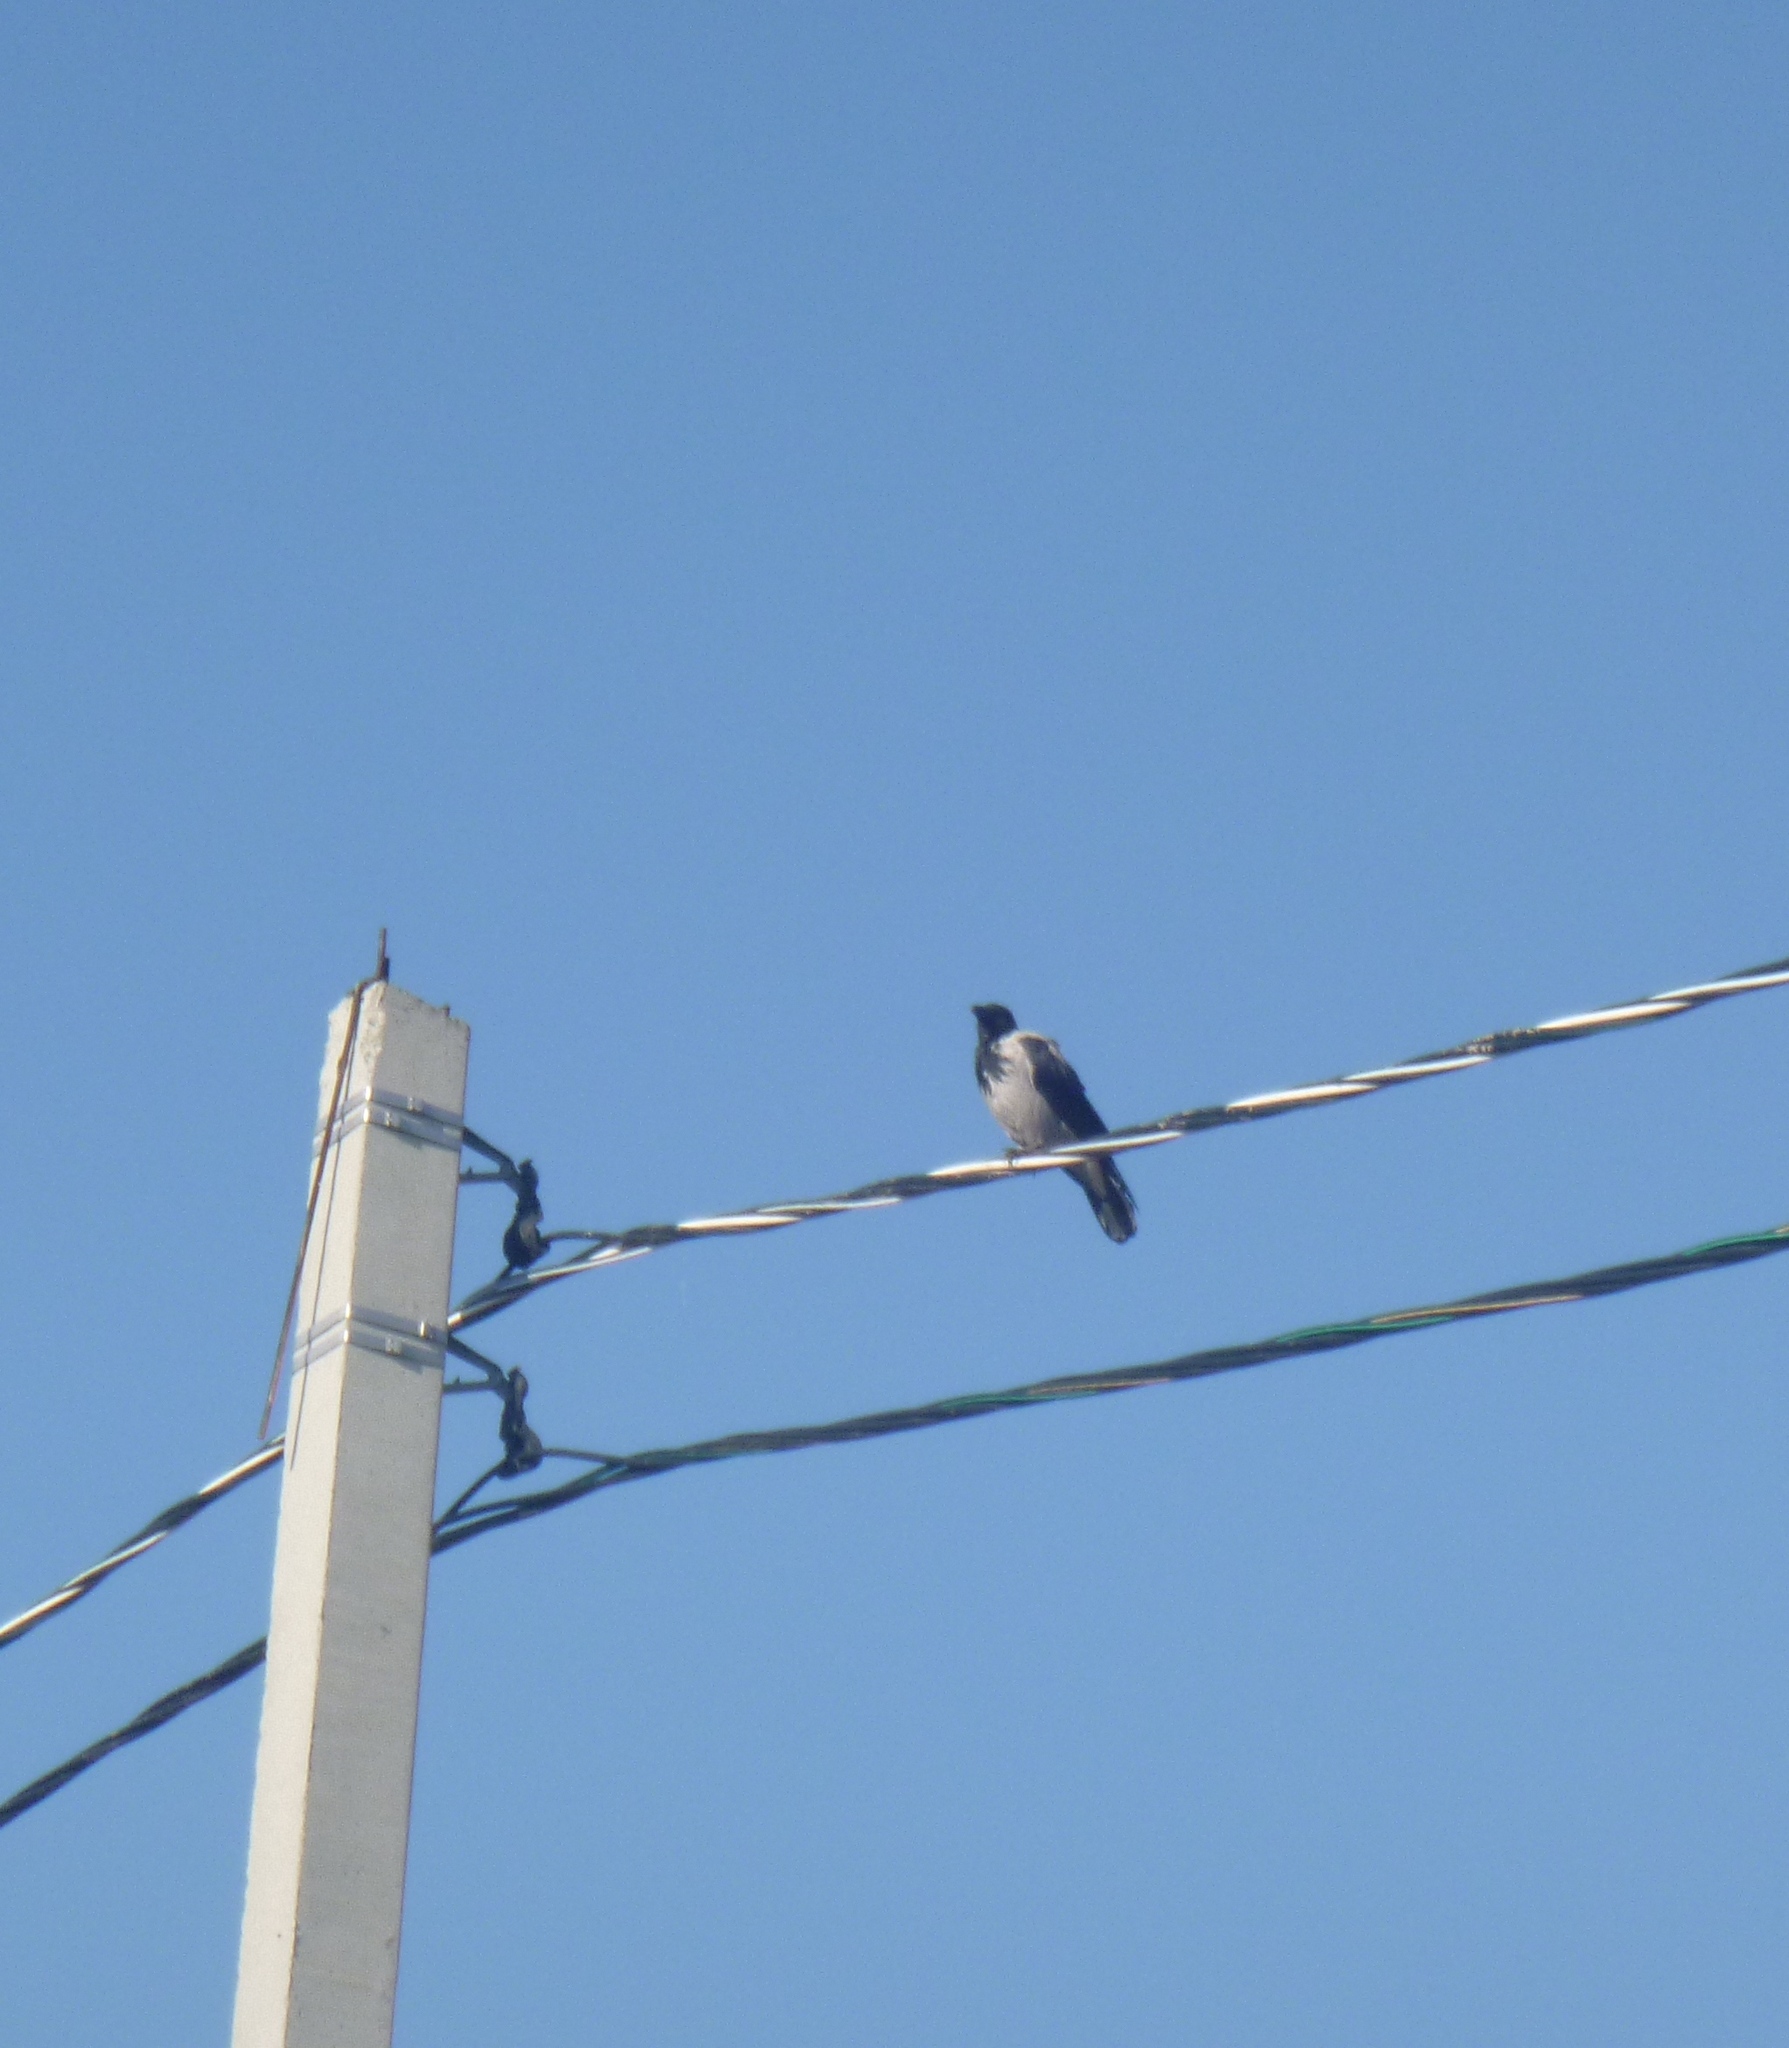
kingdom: Animalia
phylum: Chordata
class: Aves
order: Passeriformes
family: Corvidae
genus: Corvus
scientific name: Corvus cornix
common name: Hooded crow
